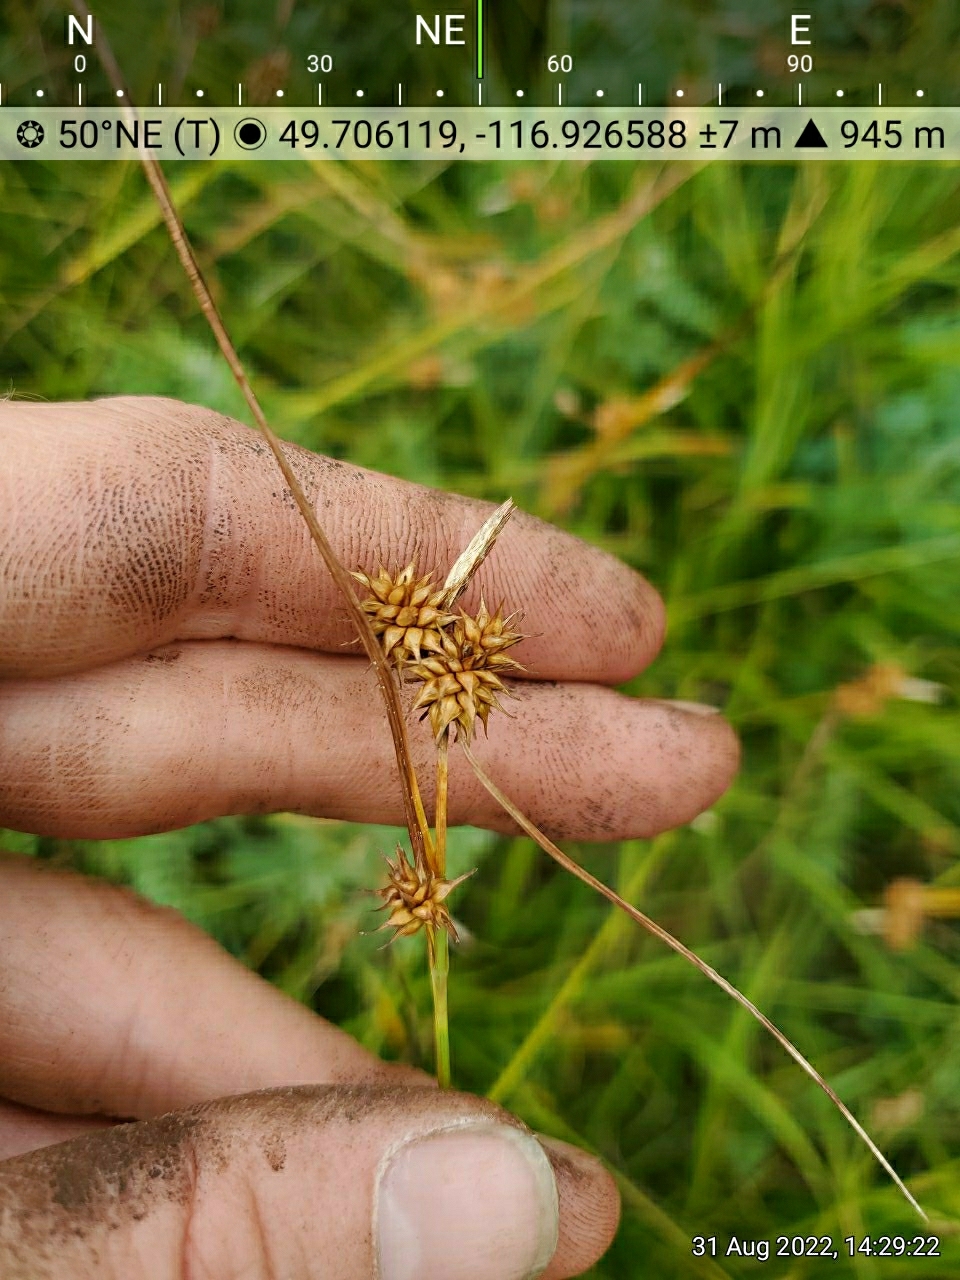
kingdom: Plantae
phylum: Tracheophyta
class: Liliopsida
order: Poales
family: Cyperaceae
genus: Carex
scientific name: Carex flava
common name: Large yellow-sedge
